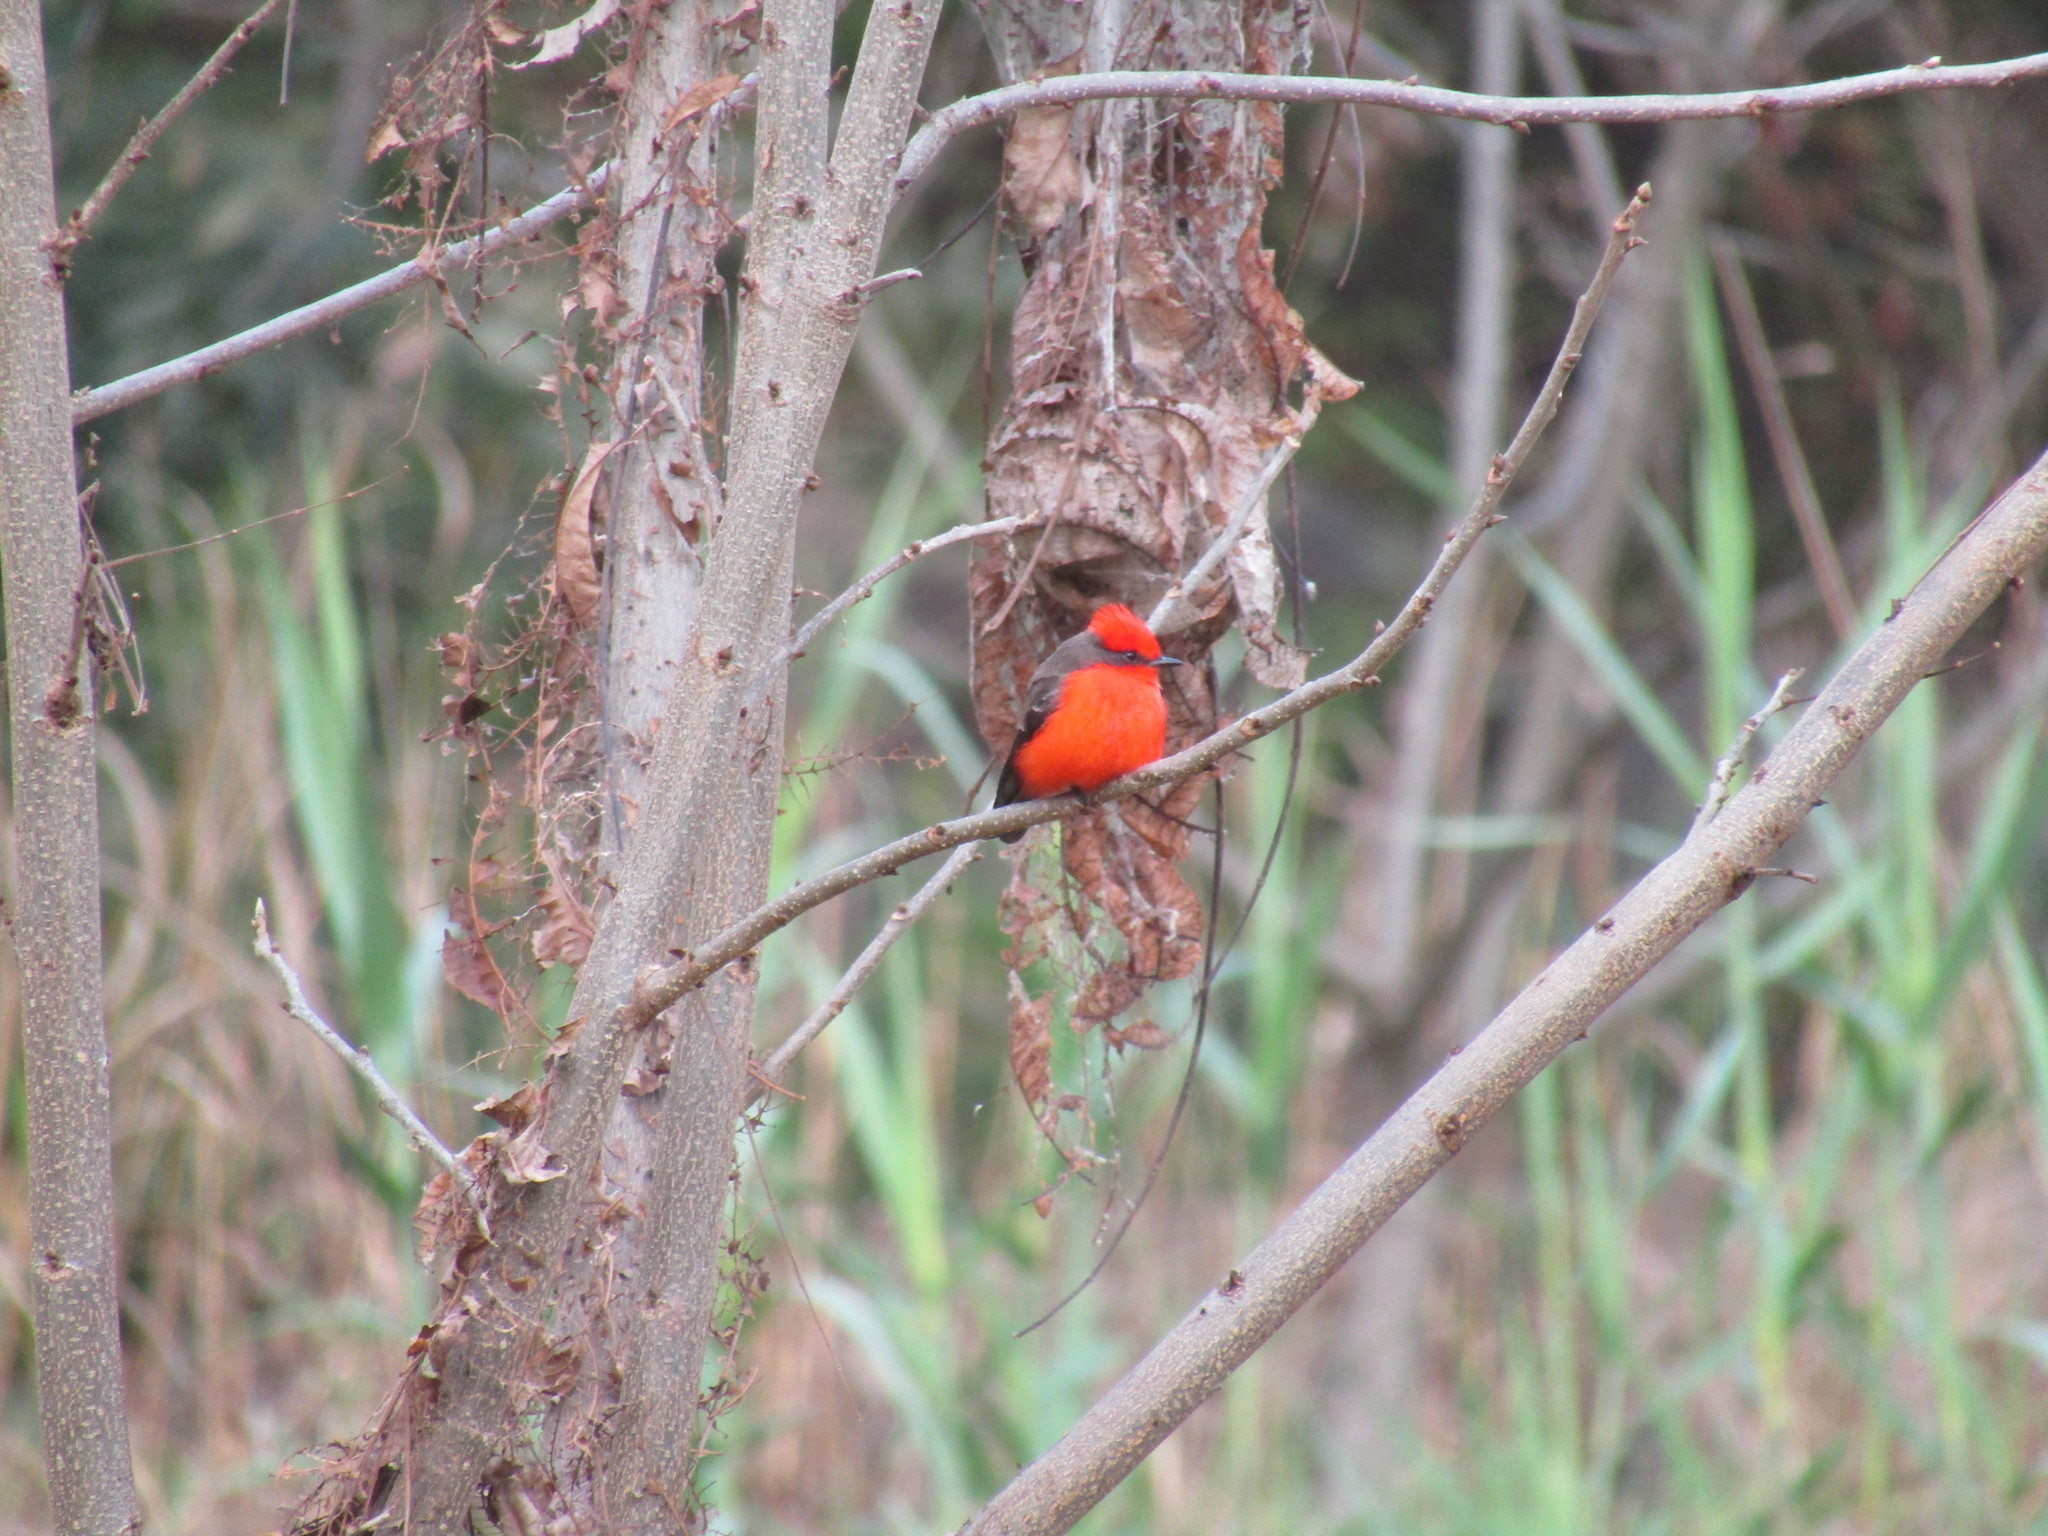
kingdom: Animalia
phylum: Chordata
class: Aves
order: Passeriformes
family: Tyrannidae
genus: Pyrocephalus
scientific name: Pyrocephalus rubinus
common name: Vermilion flycatcher
